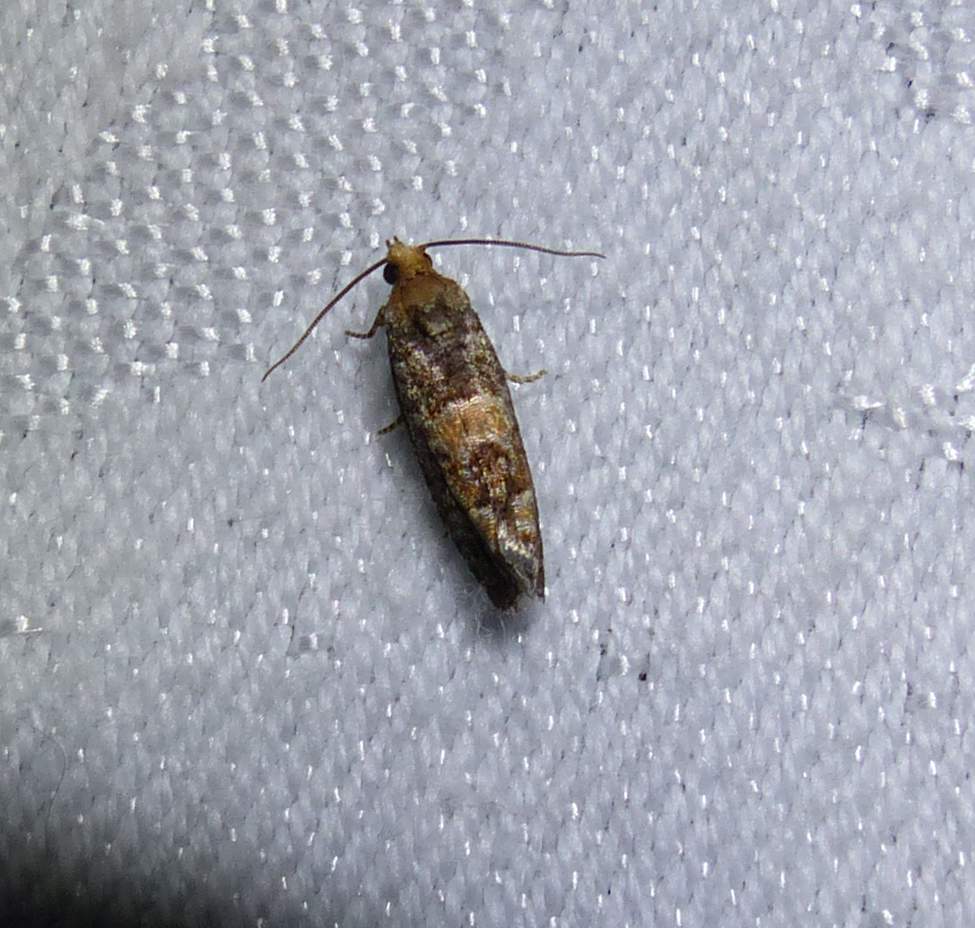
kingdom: Animalia
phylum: Arthropoda
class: Insecta
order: Lepidoptera
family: Tortricidae
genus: Eucopina
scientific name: Eucopina tocullionana
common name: White pinecone borer moth
